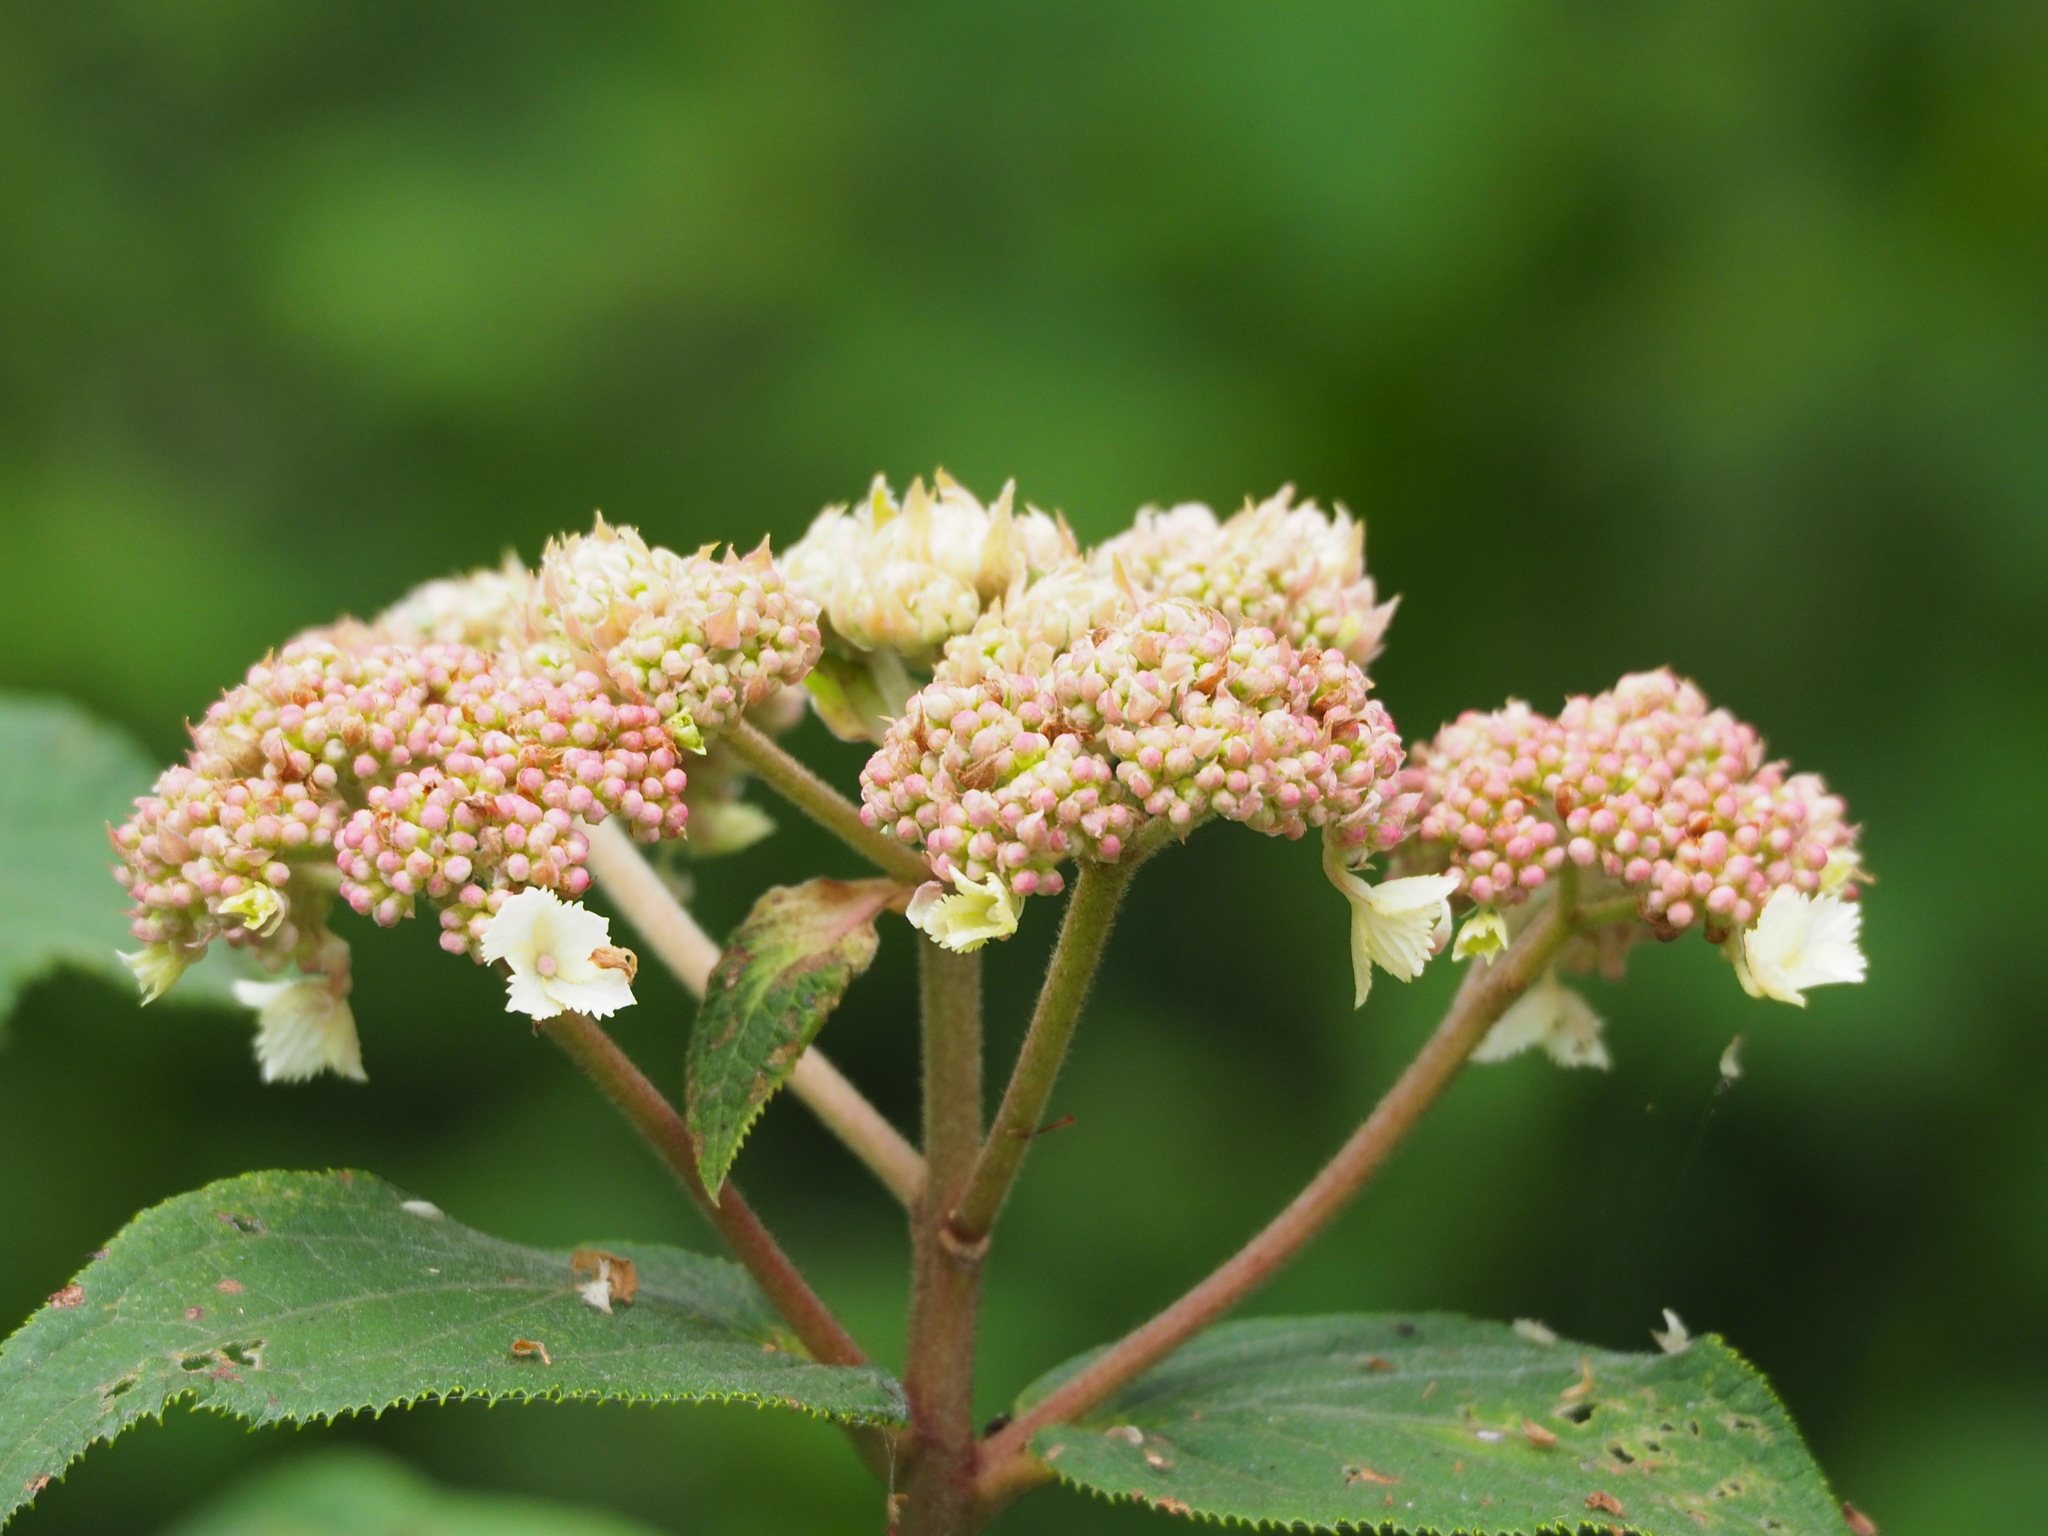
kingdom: Plantae
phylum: Tracheophyta
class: Magnoliopsida
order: Cornales
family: Hydrangeaceae
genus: Hydrangea
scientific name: Hydrangea aspera
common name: Rough-leaf hydrangea
